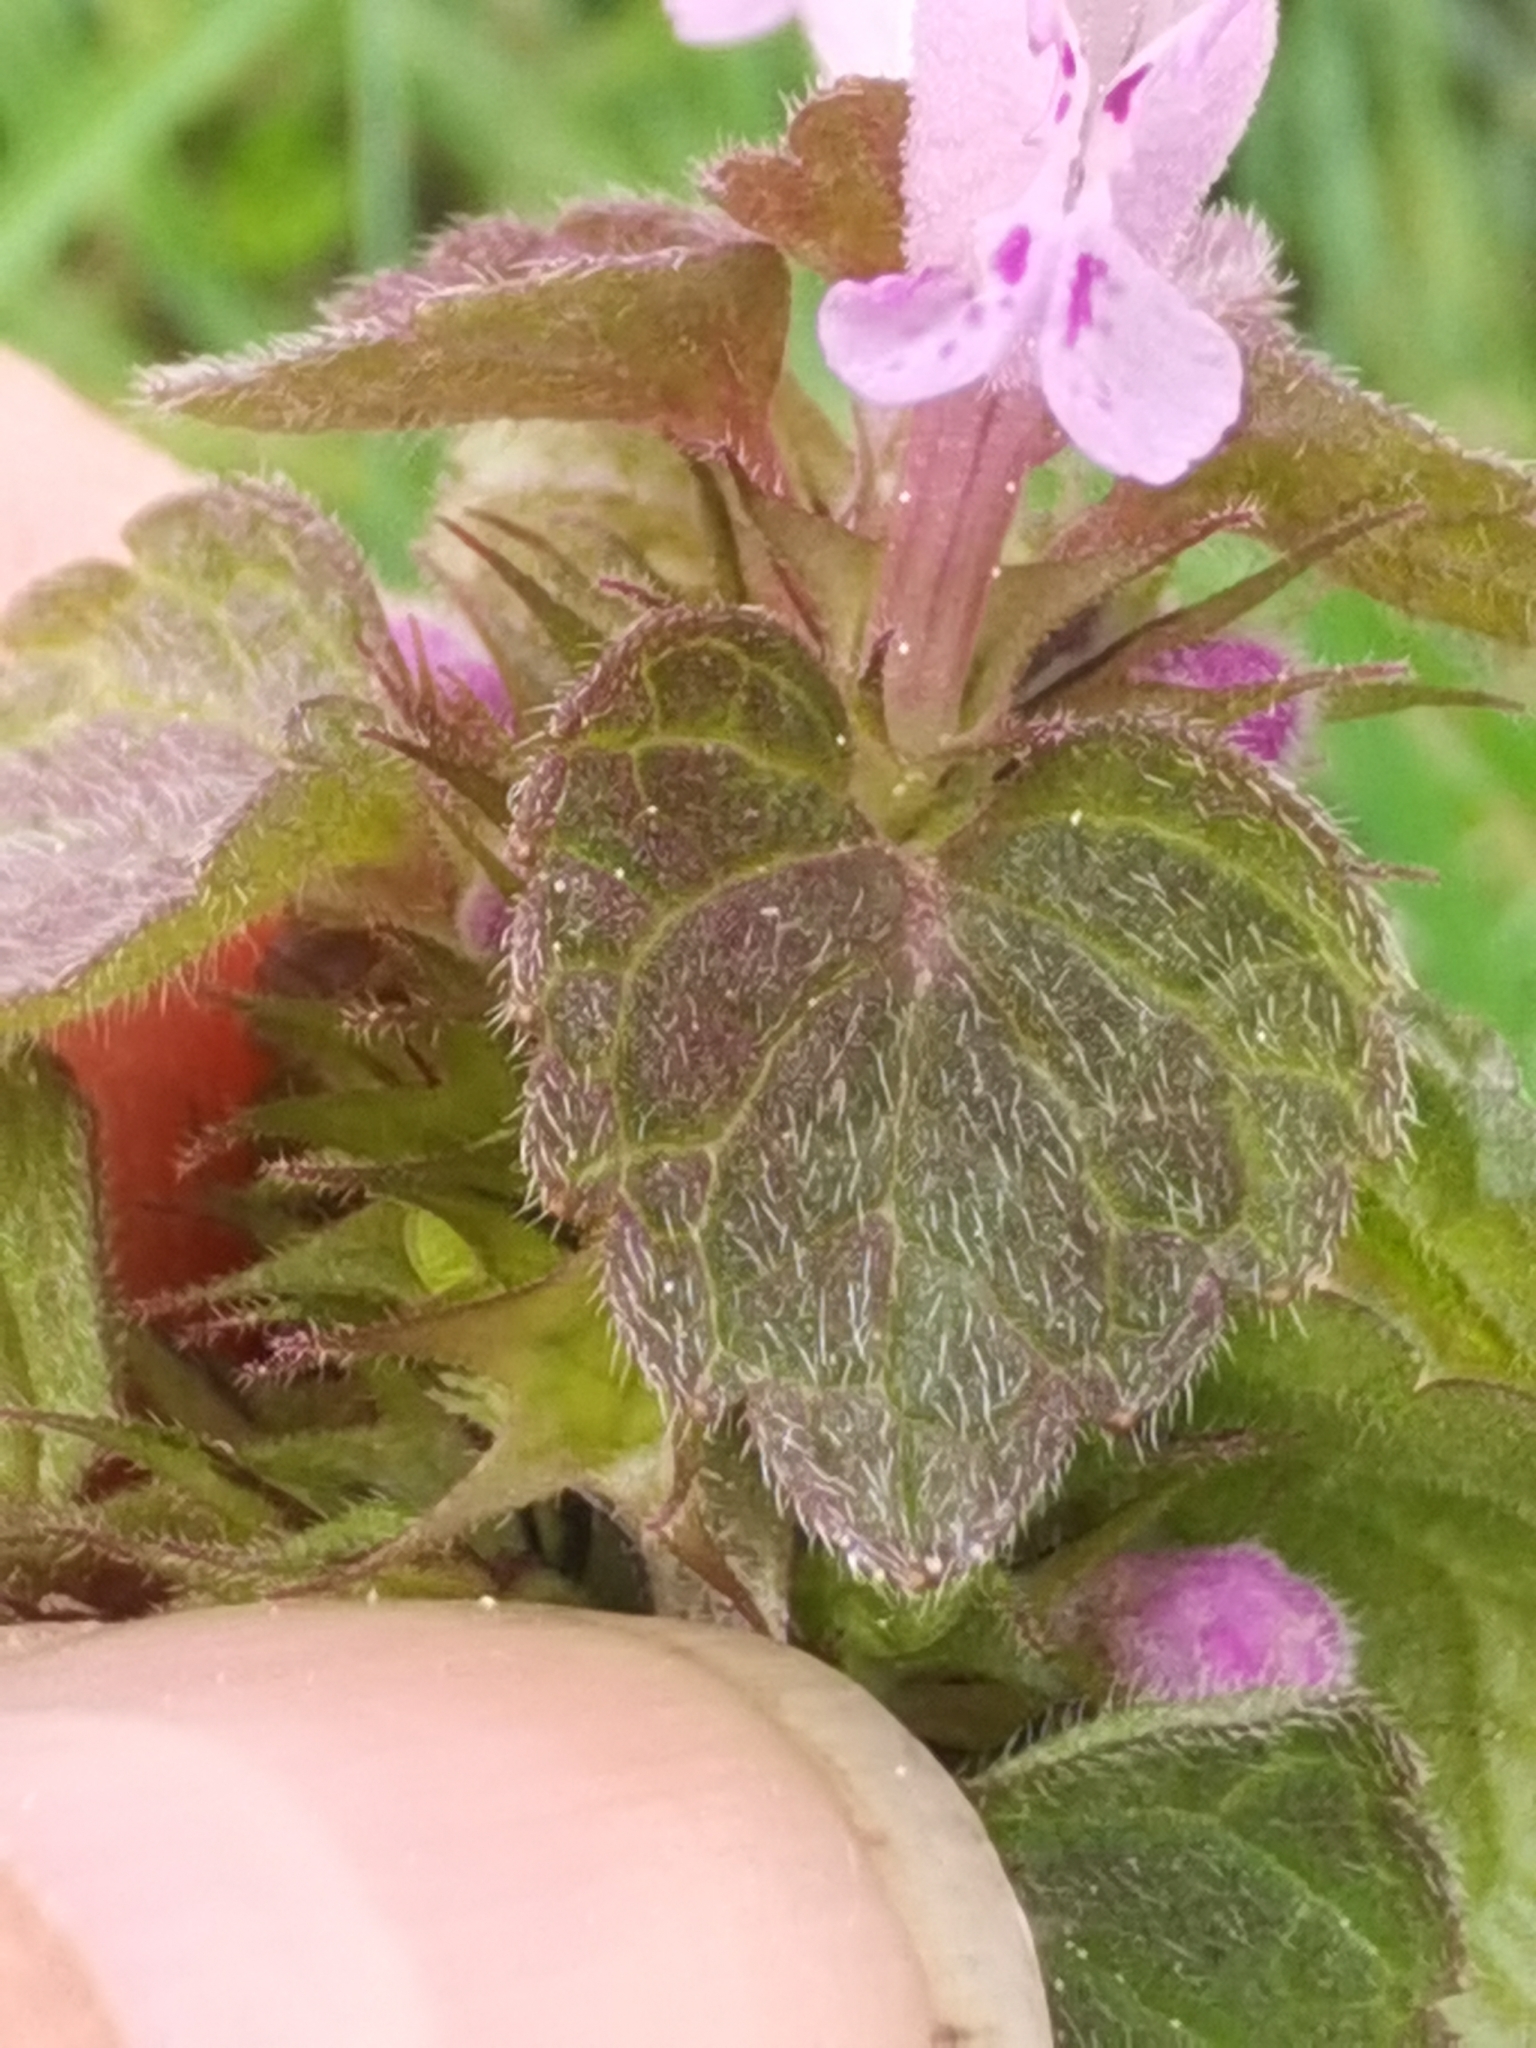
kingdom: Plantae
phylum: Tracheophyta
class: Magnoliopsida
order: Lamiales
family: Lamiaceae
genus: Lamium
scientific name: Lamium purpureum
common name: Red dead-nettle
